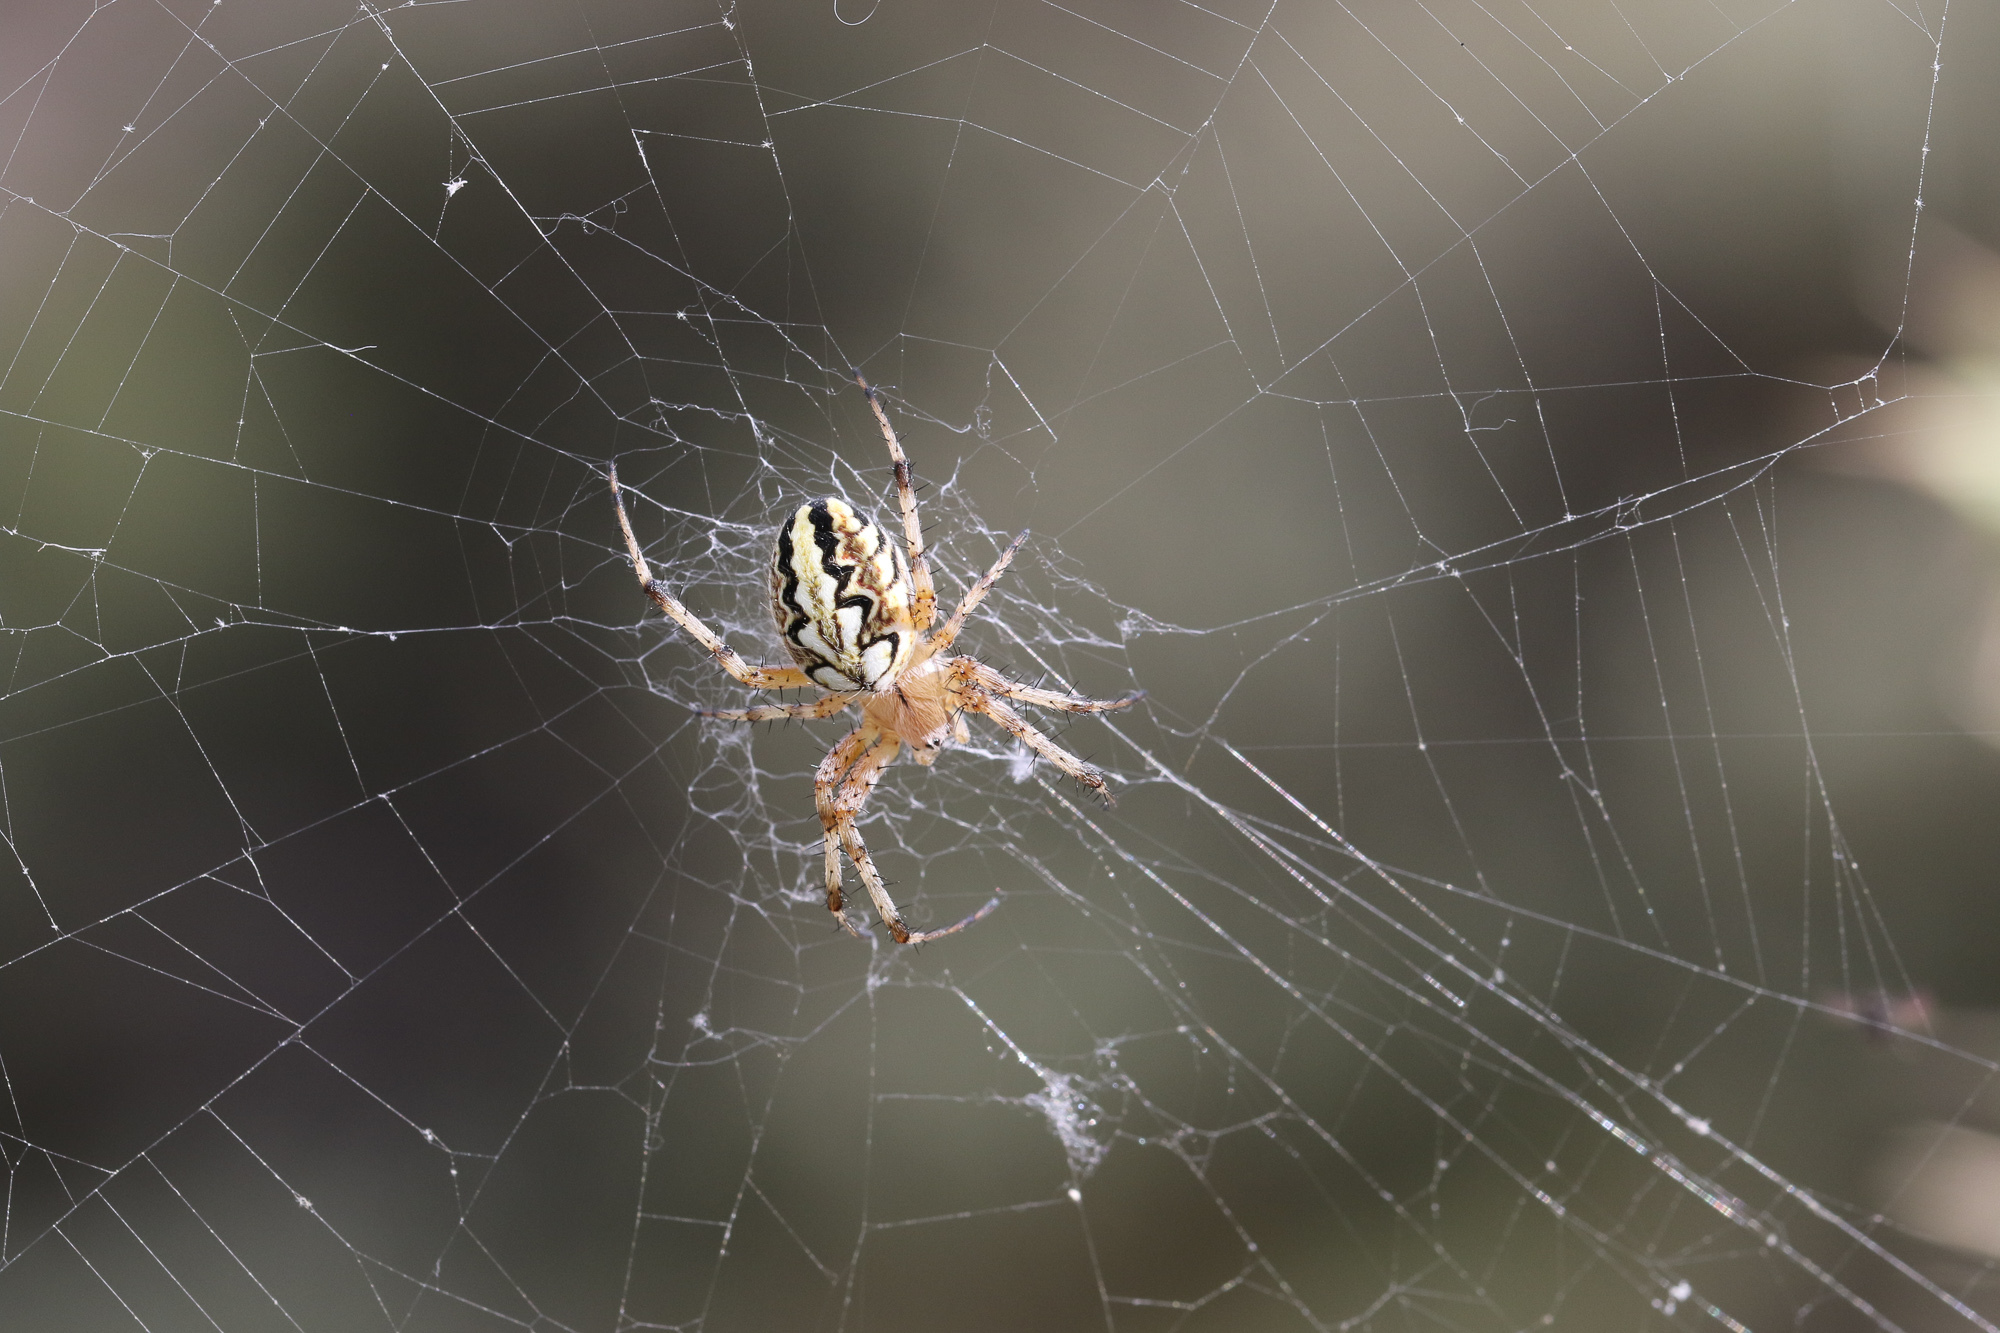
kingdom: Animalia
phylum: Arthropoda
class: Arachnida
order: Araneae
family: Araneidae
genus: Neoscona
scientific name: Neoscona adianta
